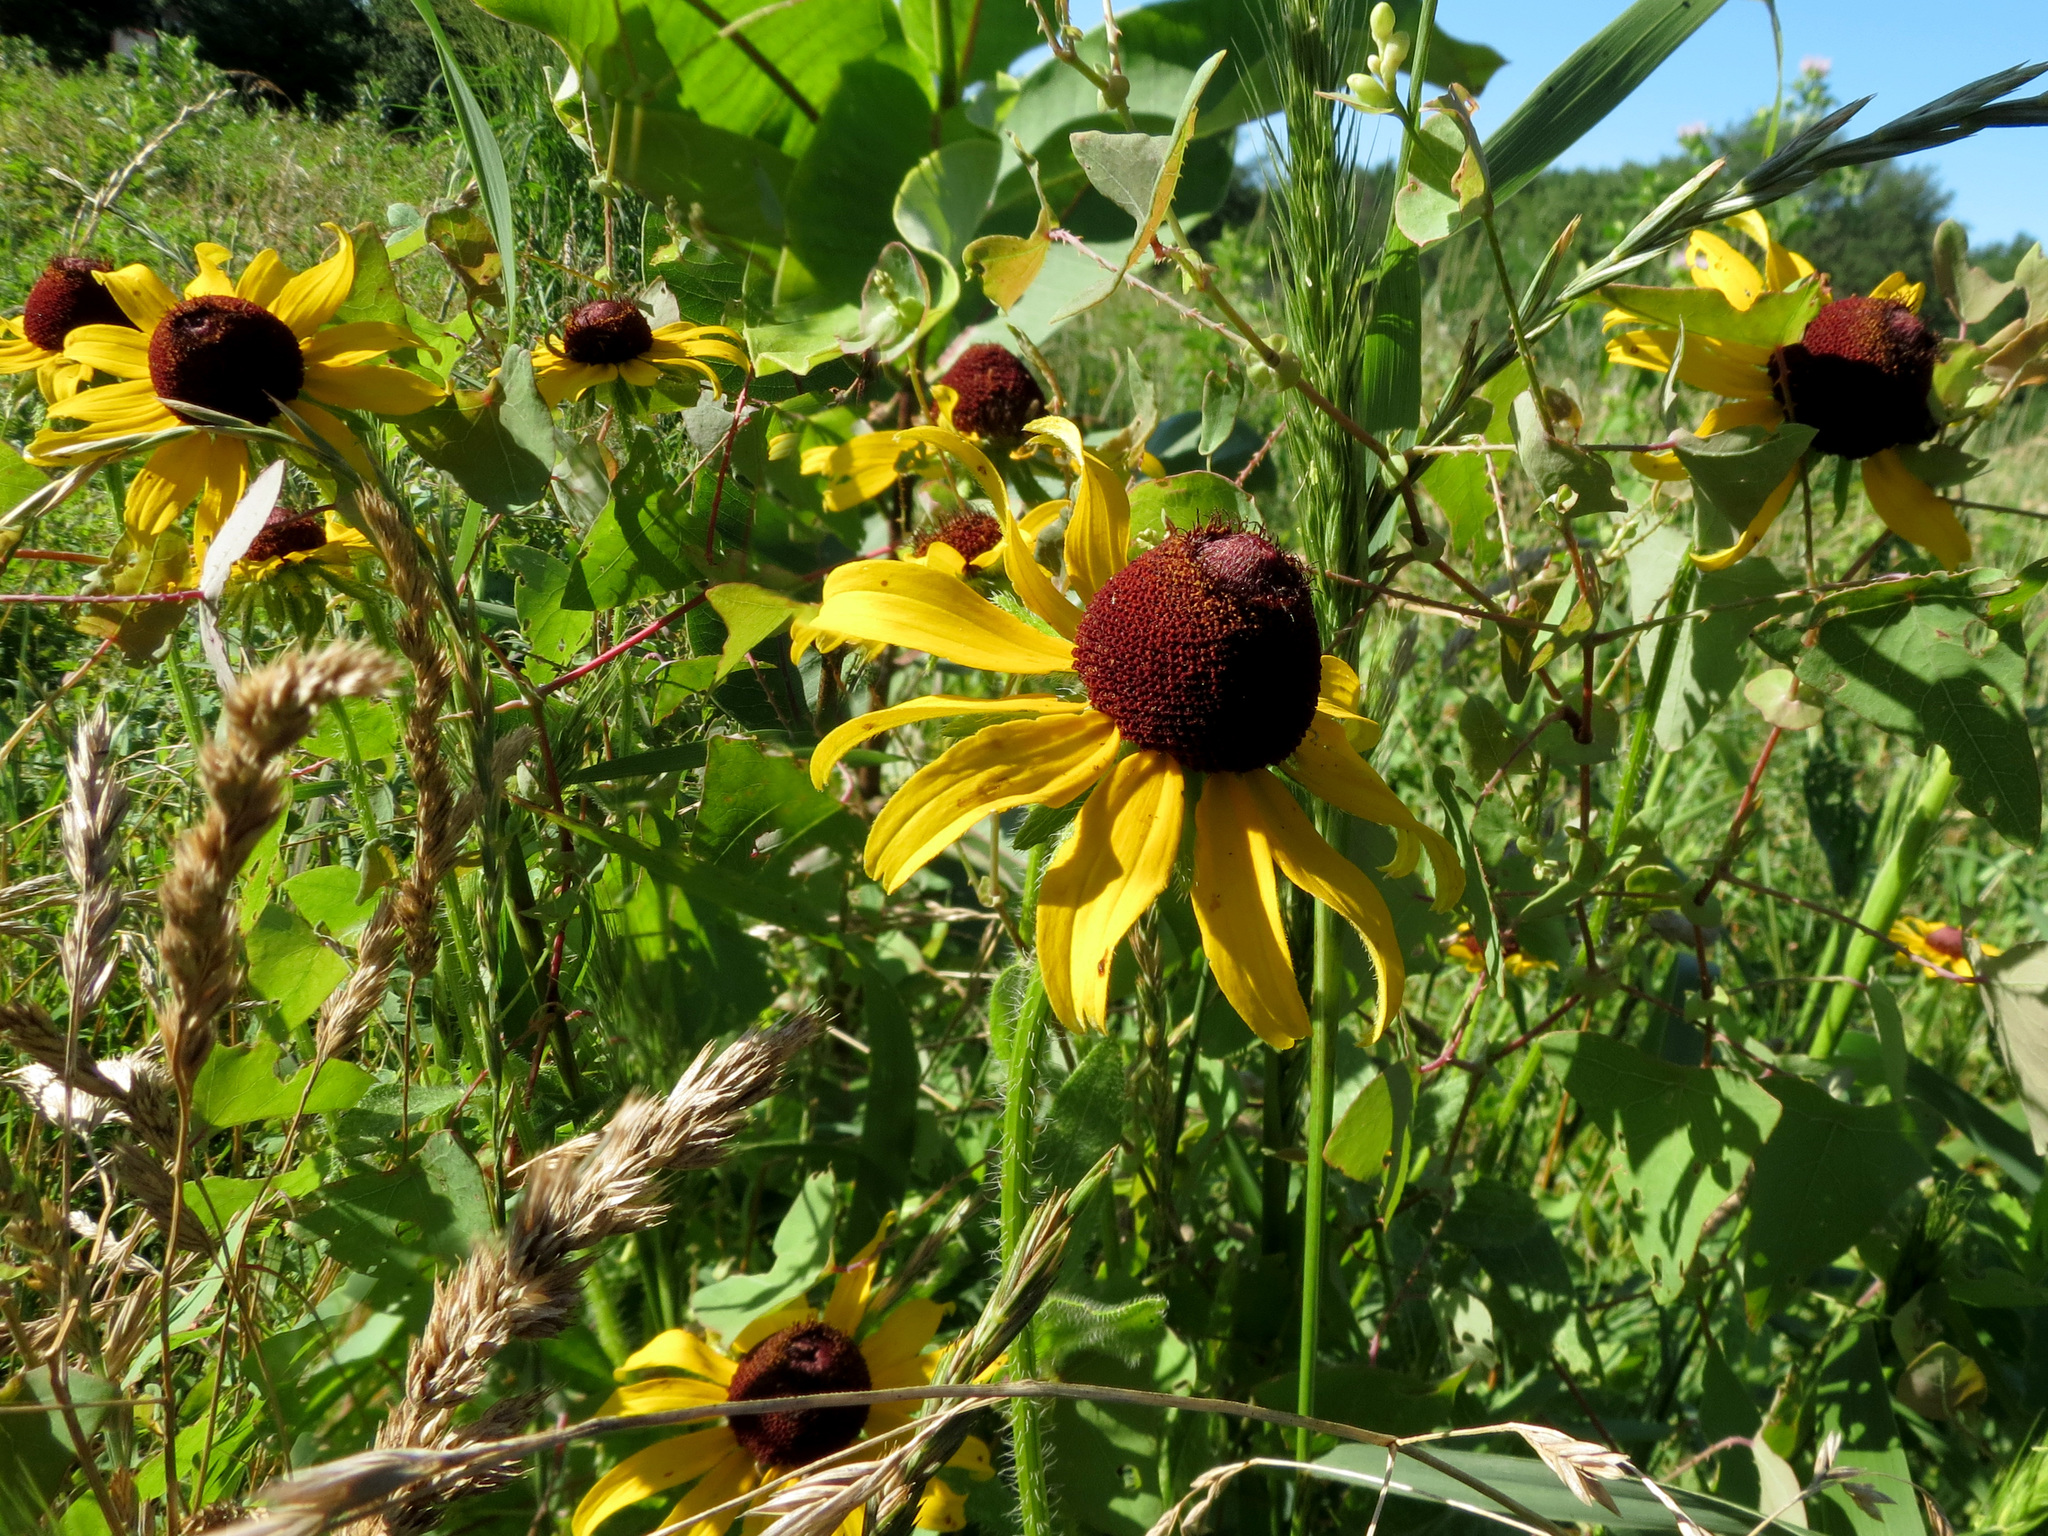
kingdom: Plantae
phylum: Tracheophyta
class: Magnoliopsida
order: Asterales
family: Asteraceae
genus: Rudbeckia
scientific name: Rudbeckia hirta
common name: Black-eyed-susan
